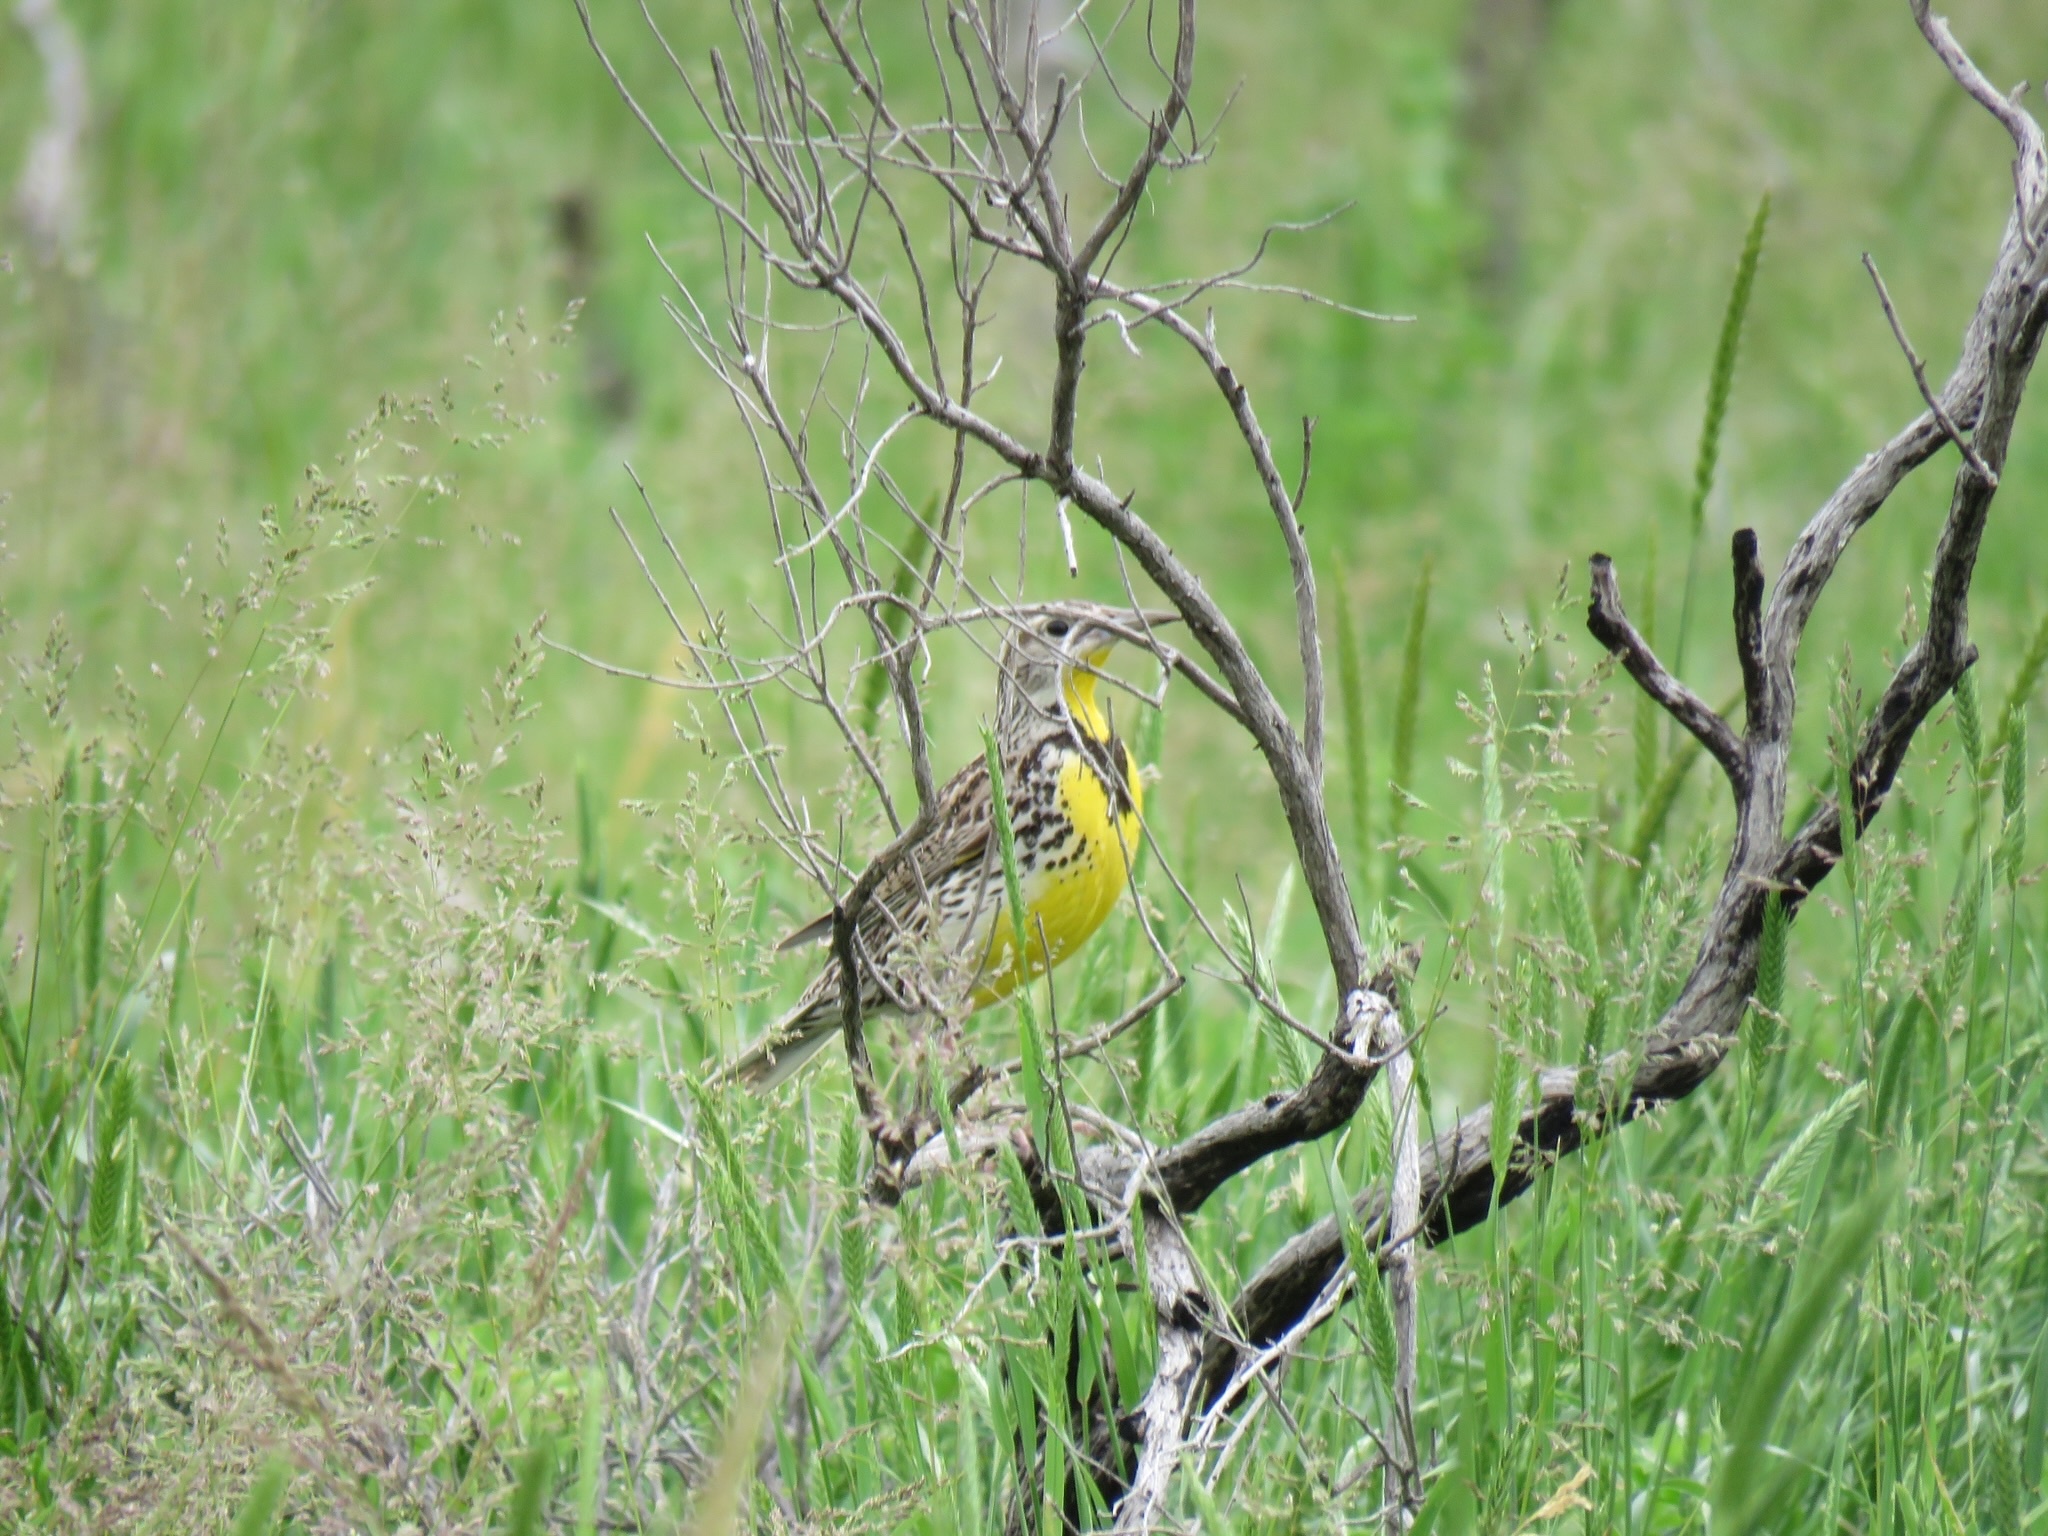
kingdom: Animalia
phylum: Chordata
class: Aves
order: Passeriformes
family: Icteridae
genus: Sturnella
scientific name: Sturnella neglecta
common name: Western meadowlark
